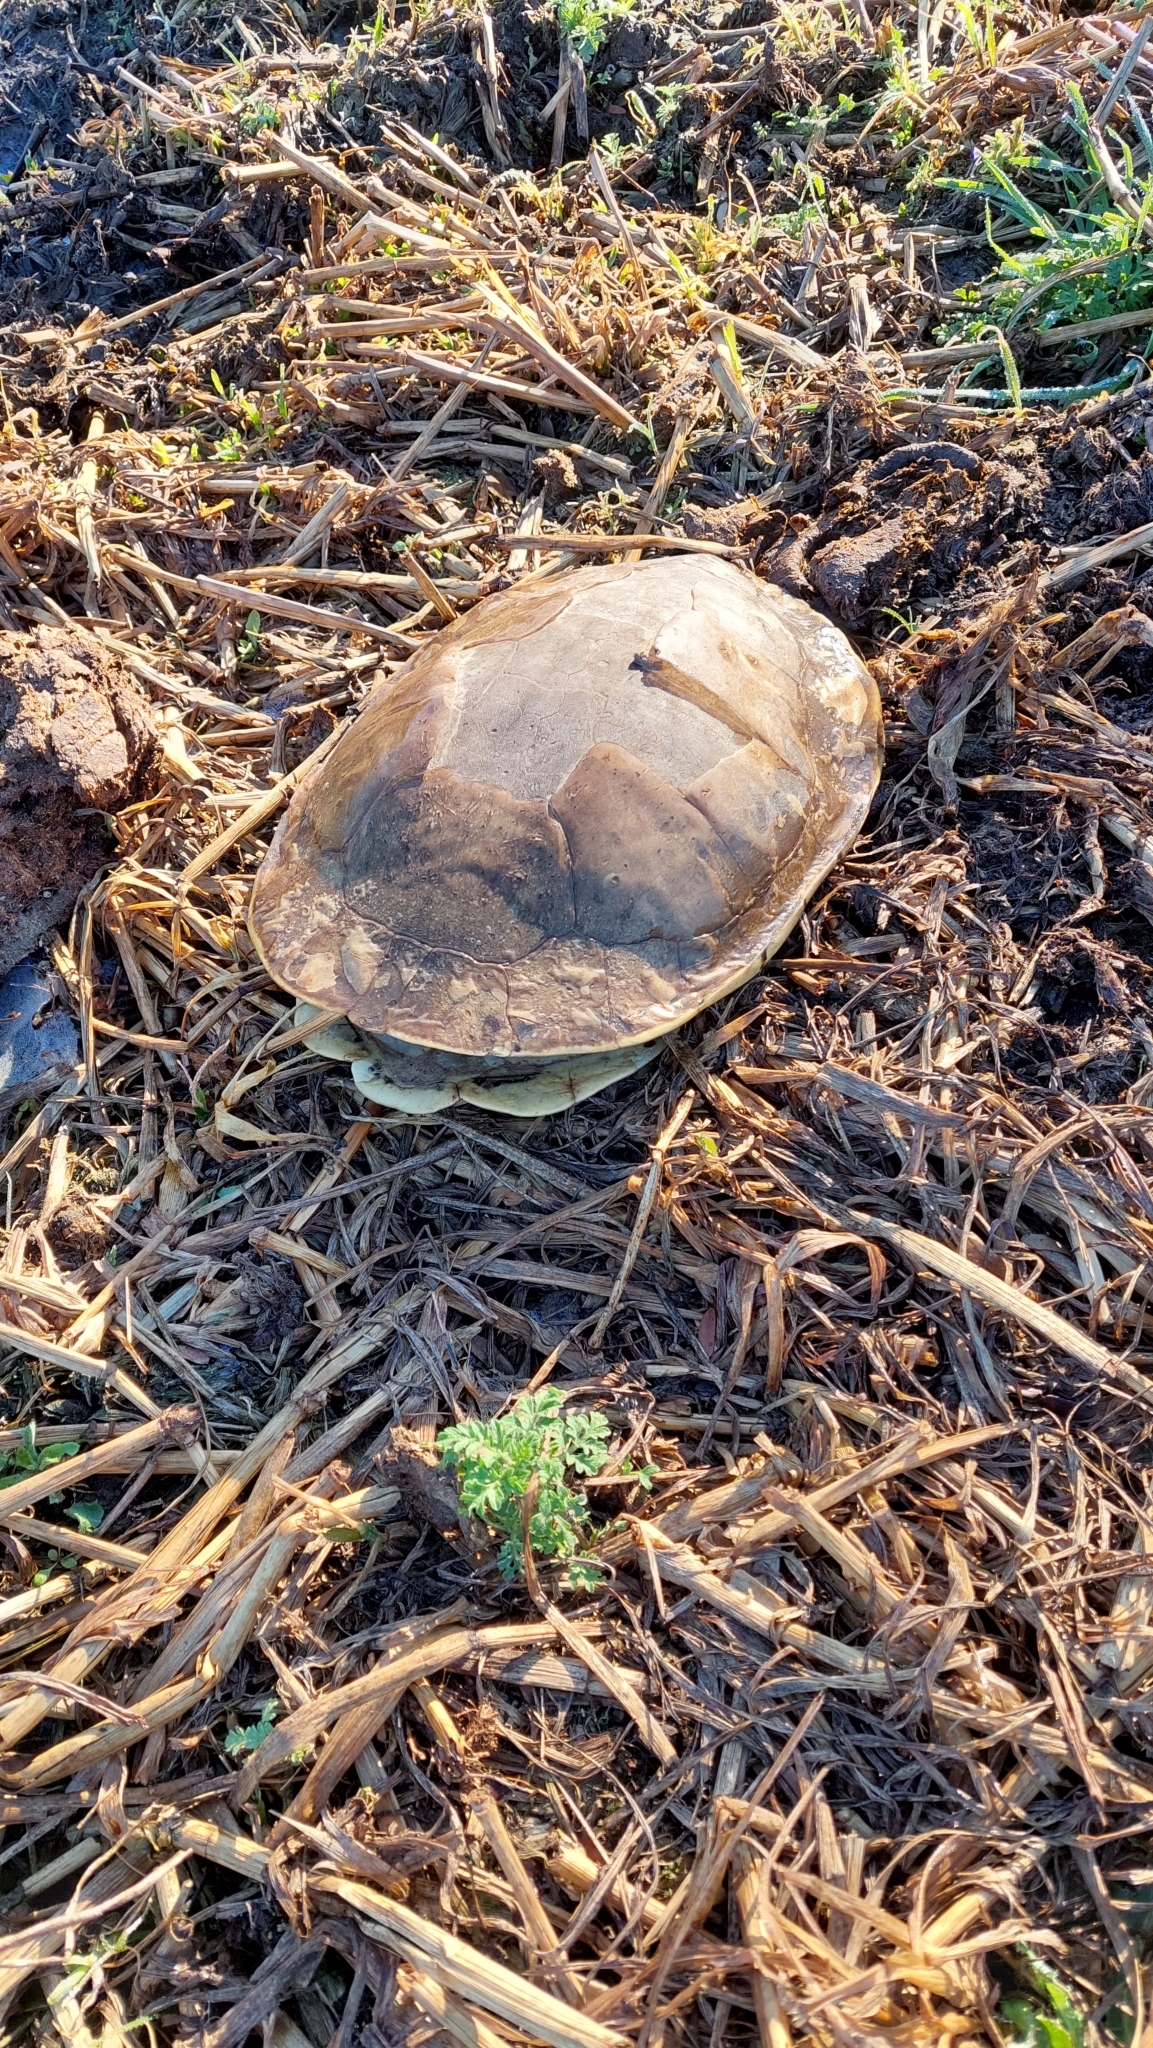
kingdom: Animalia
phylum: Chordata
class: Testudines
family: Chelidae
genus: Phrynops
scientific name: Phrynops hilarii
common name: Side-necked turtle of saint hillaire
